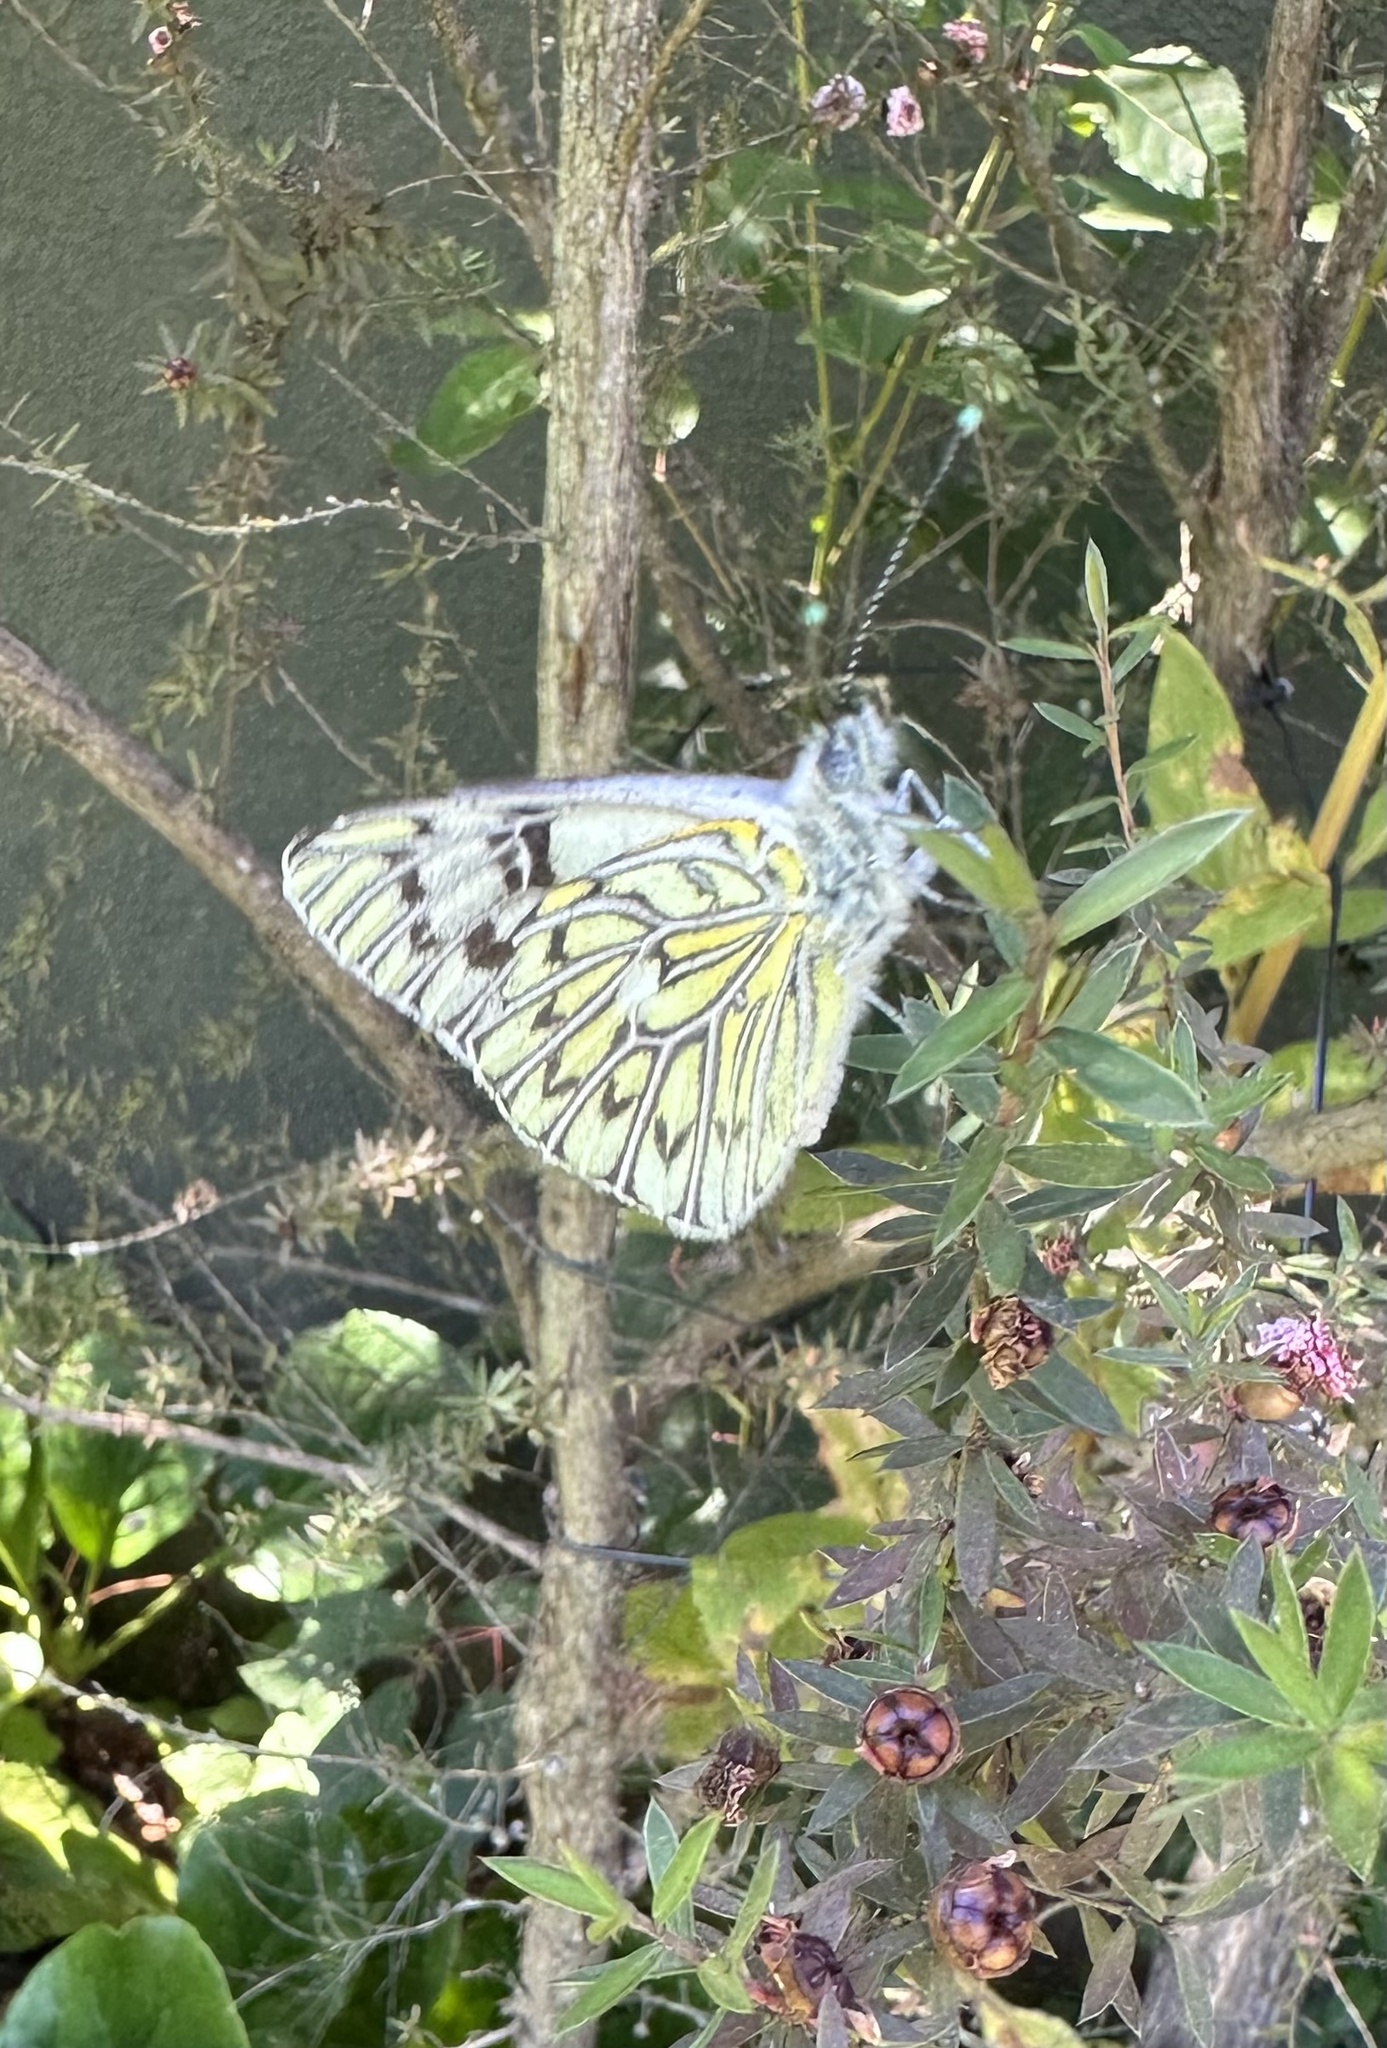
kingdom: Animalia
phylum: Arthropoda
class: Insecta
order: Lepidoptera
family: Pieridae
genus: Tatochila
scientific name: Tatochila autodice
